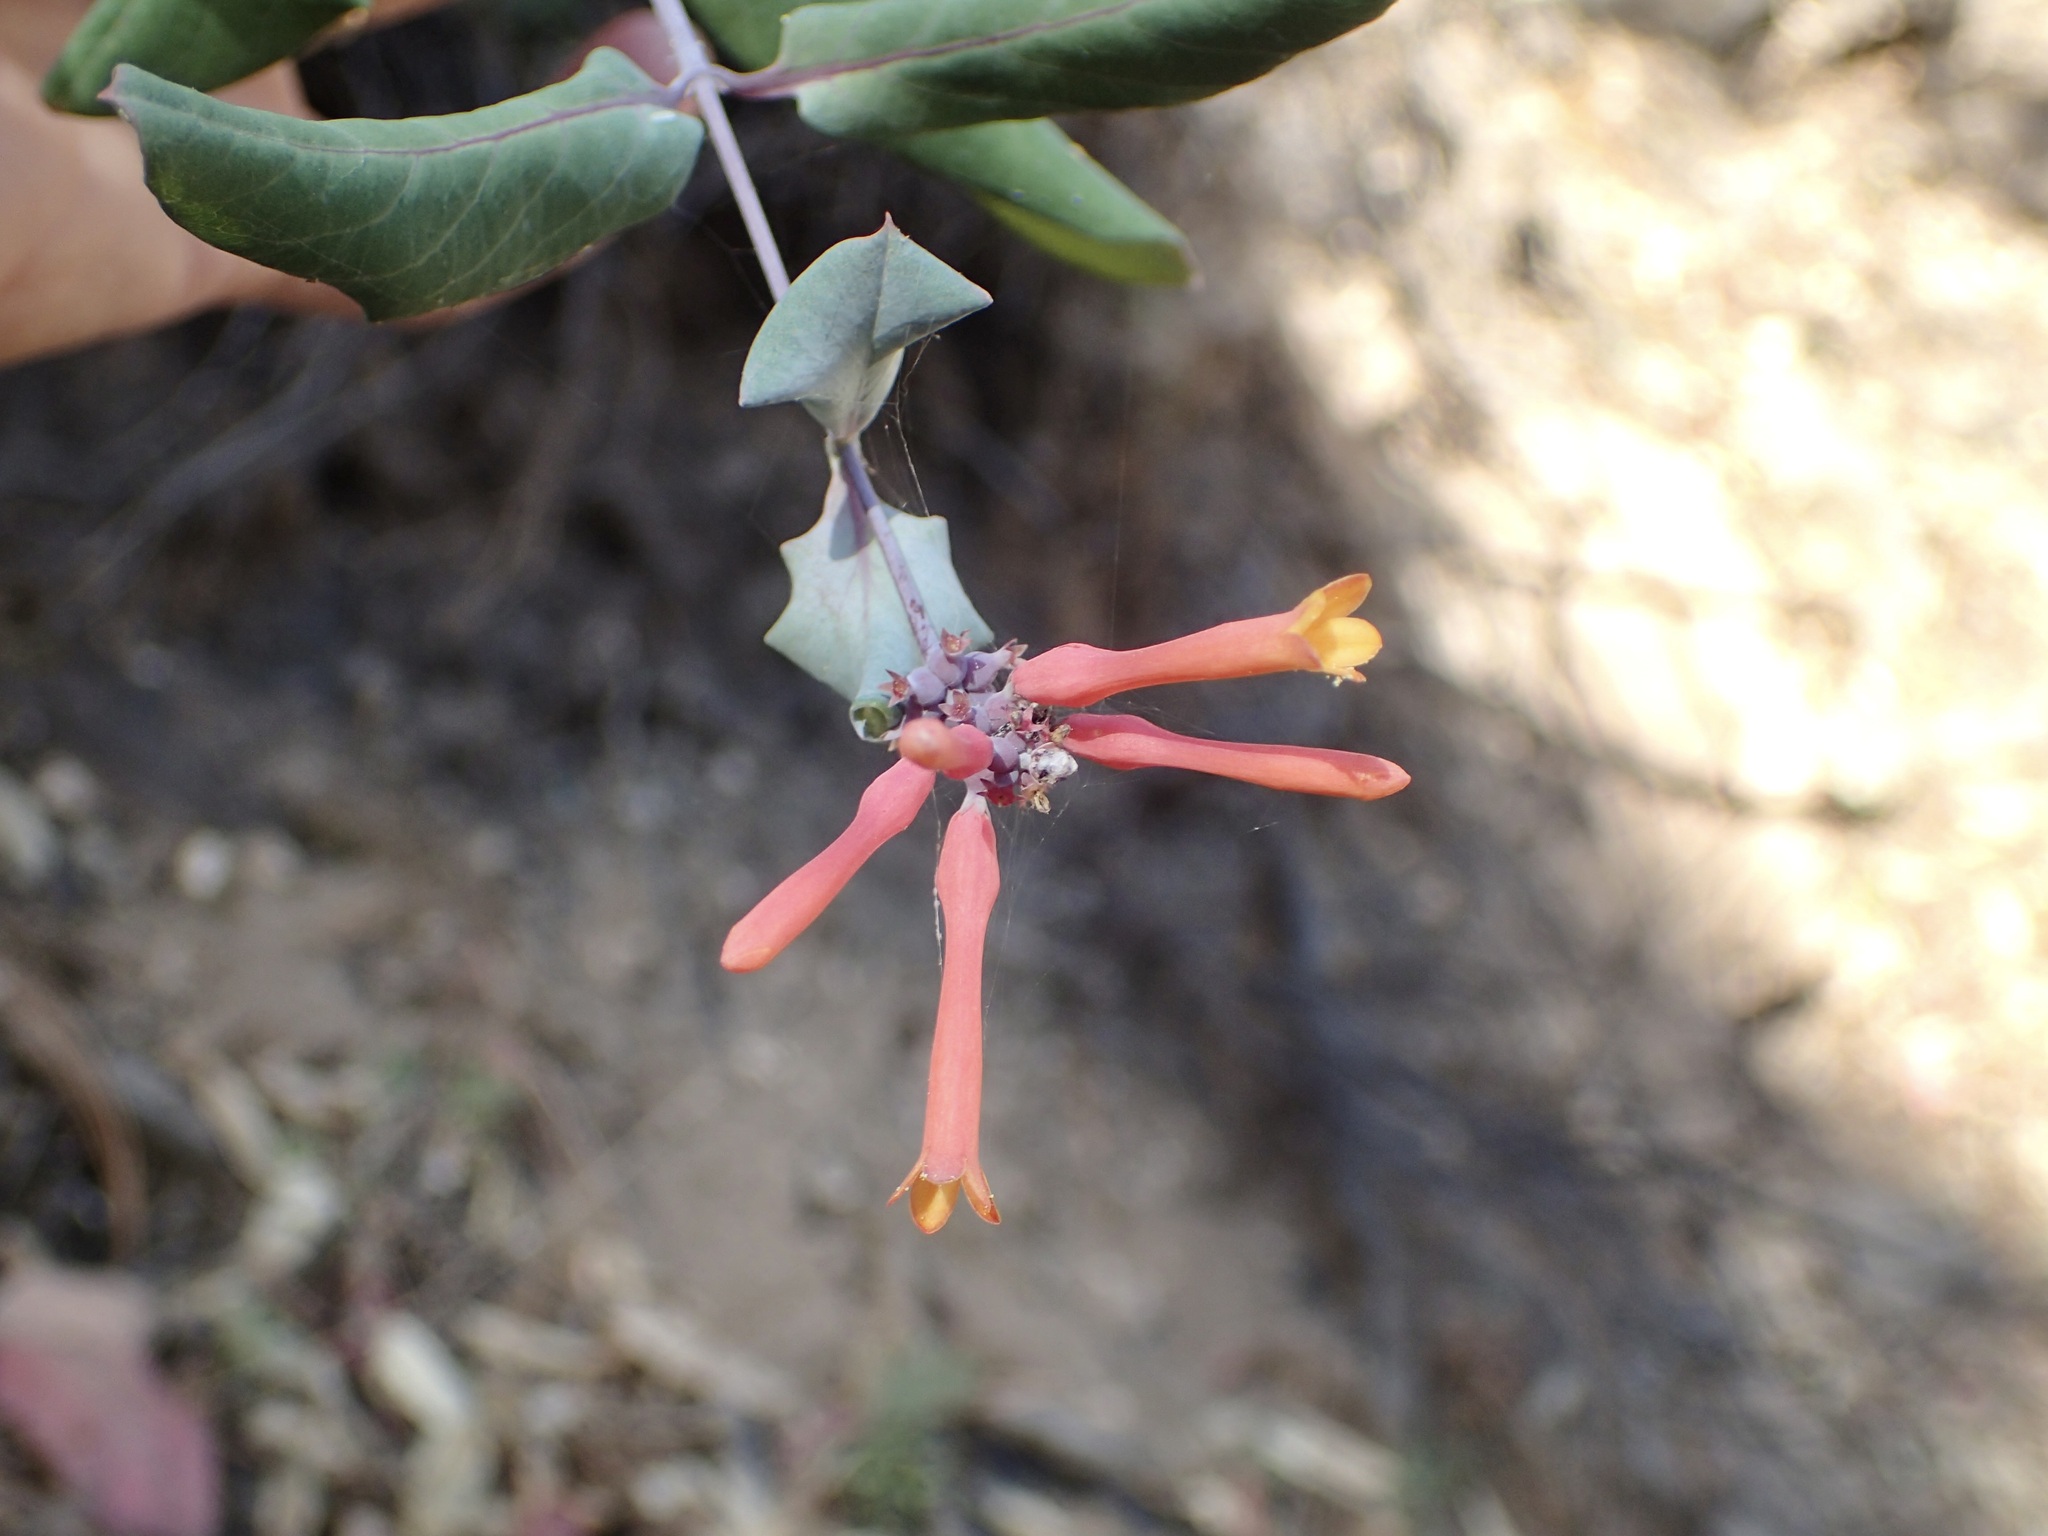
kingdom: Plantae
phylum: Tracheophyta
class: Magnoliopsida
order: Dipsacales
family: Caprifoliaceae
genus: Lonicera
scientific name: Lonicera cerviculata
